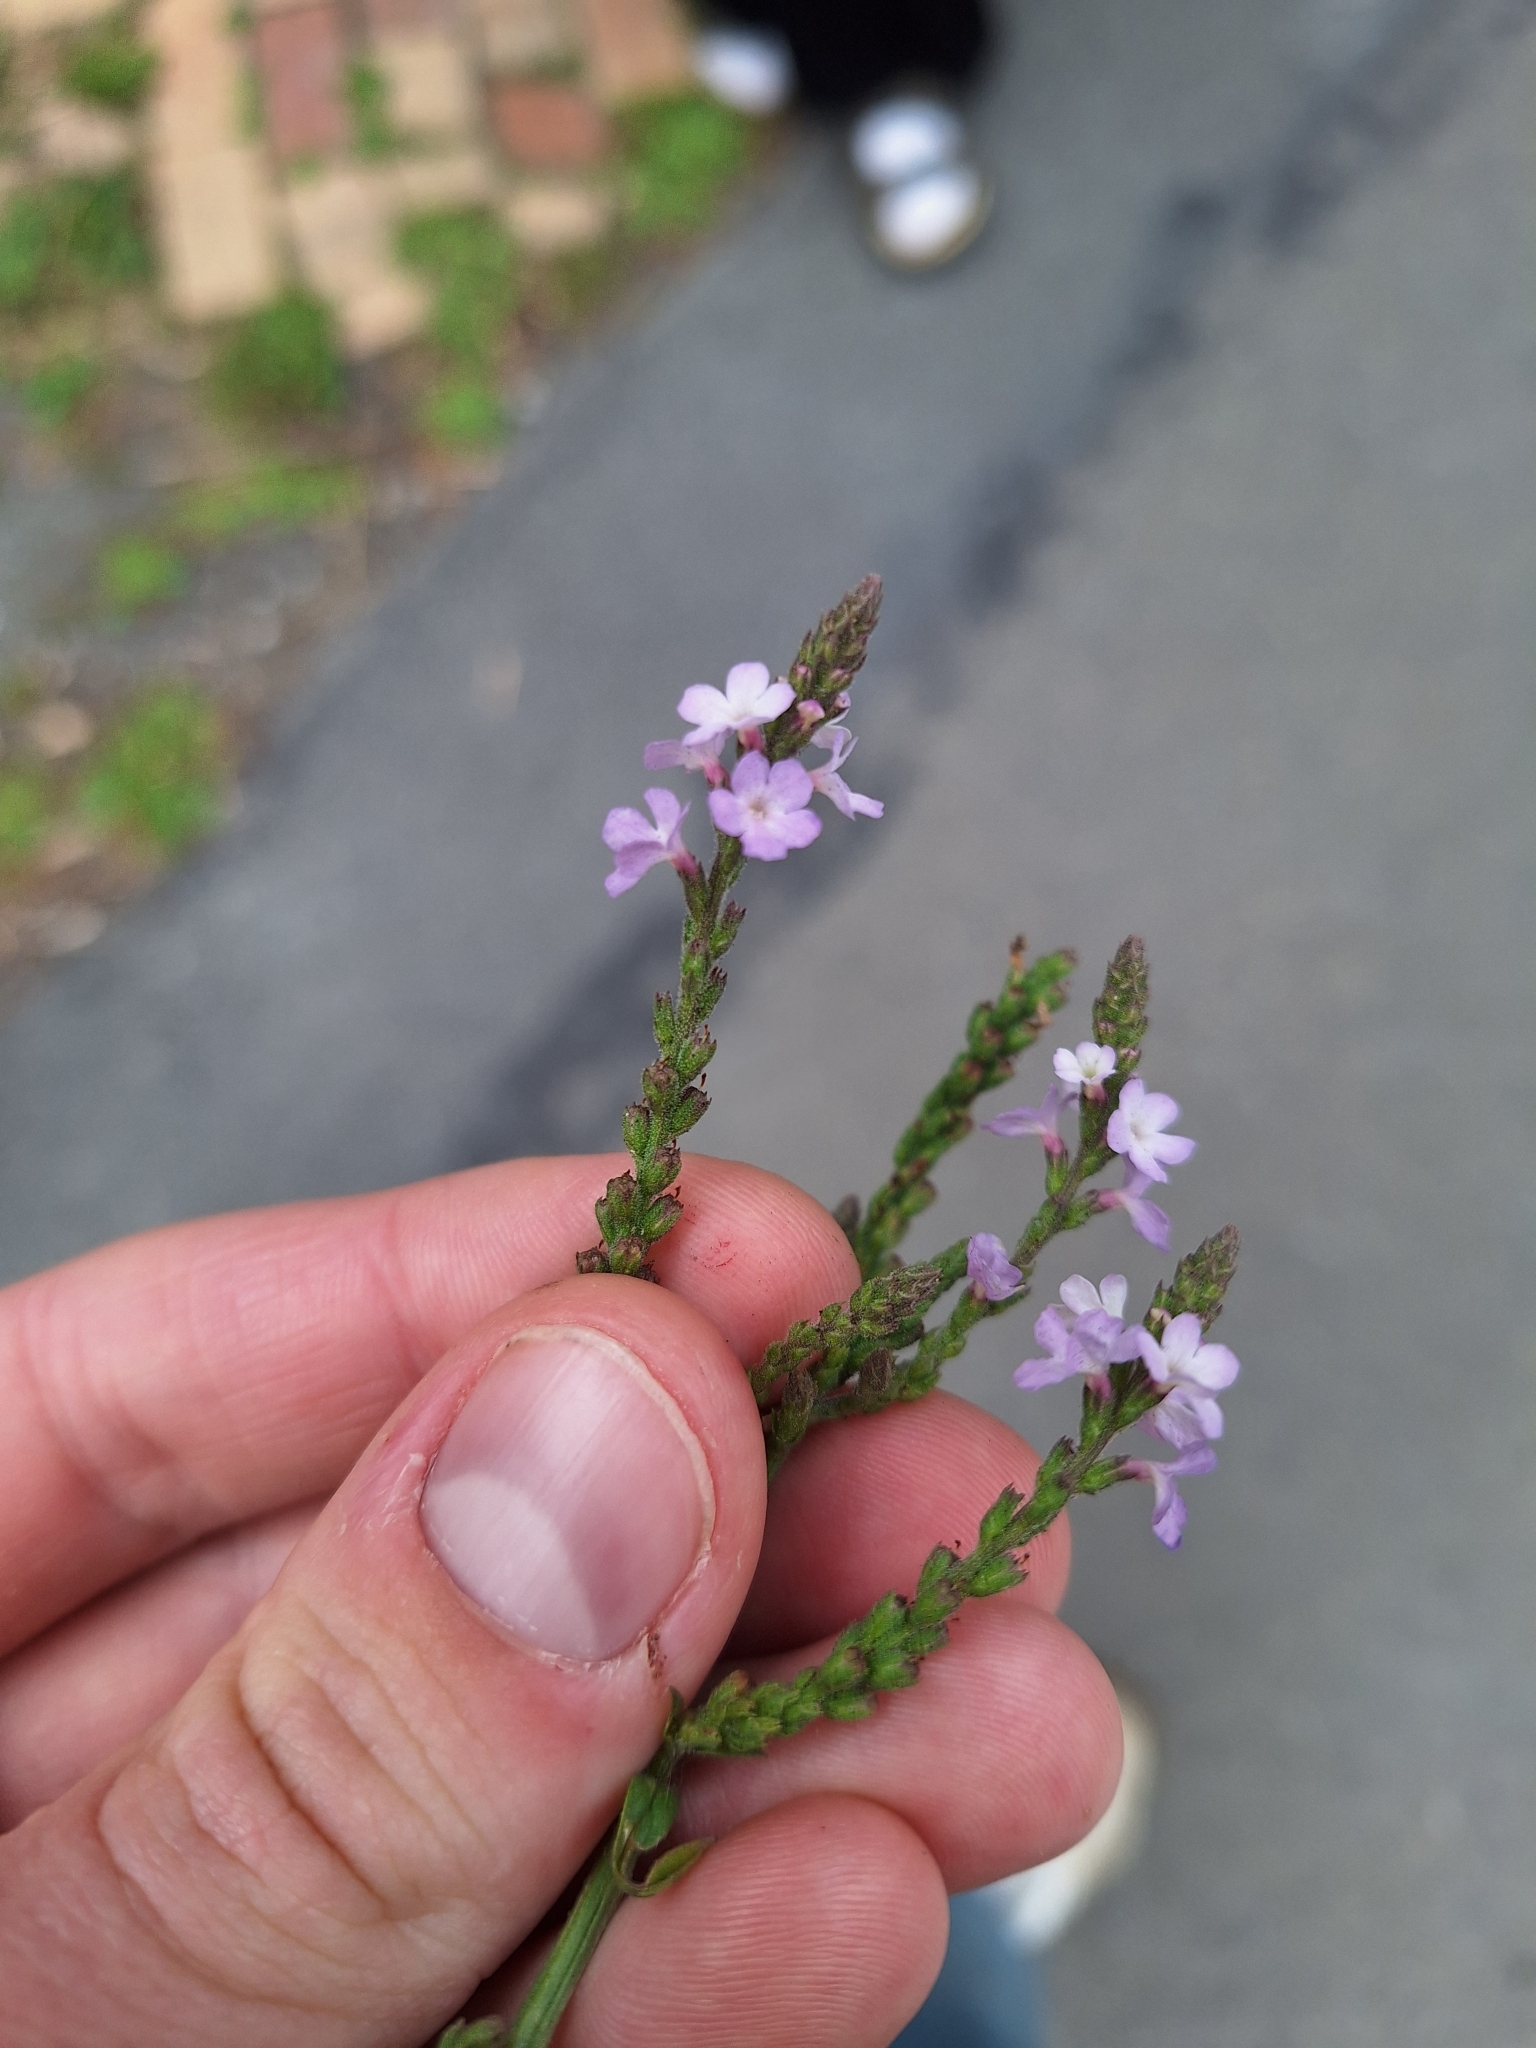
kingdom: Plantae
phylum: Tracheophyta
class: Magnoliopsida
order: Lamiales
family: Verbenaceae
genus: Verbena
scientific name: Verbena officinalis
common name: Vervain
